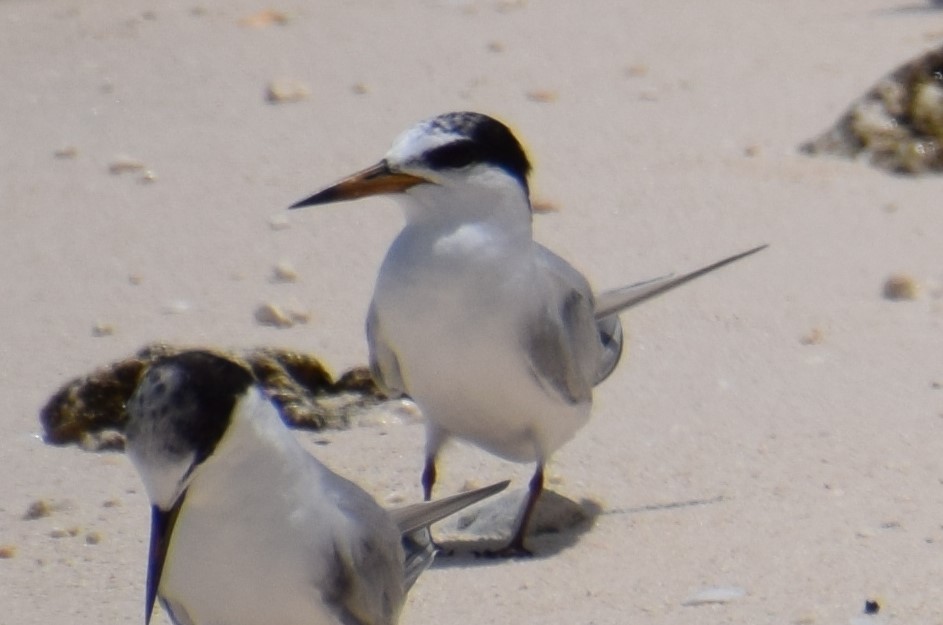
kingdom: Animalia
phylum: Chordata
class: Aves
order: Charadriiformes
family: Laridae
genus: Sternula
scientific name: Sternula albifrons
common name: Little tern
